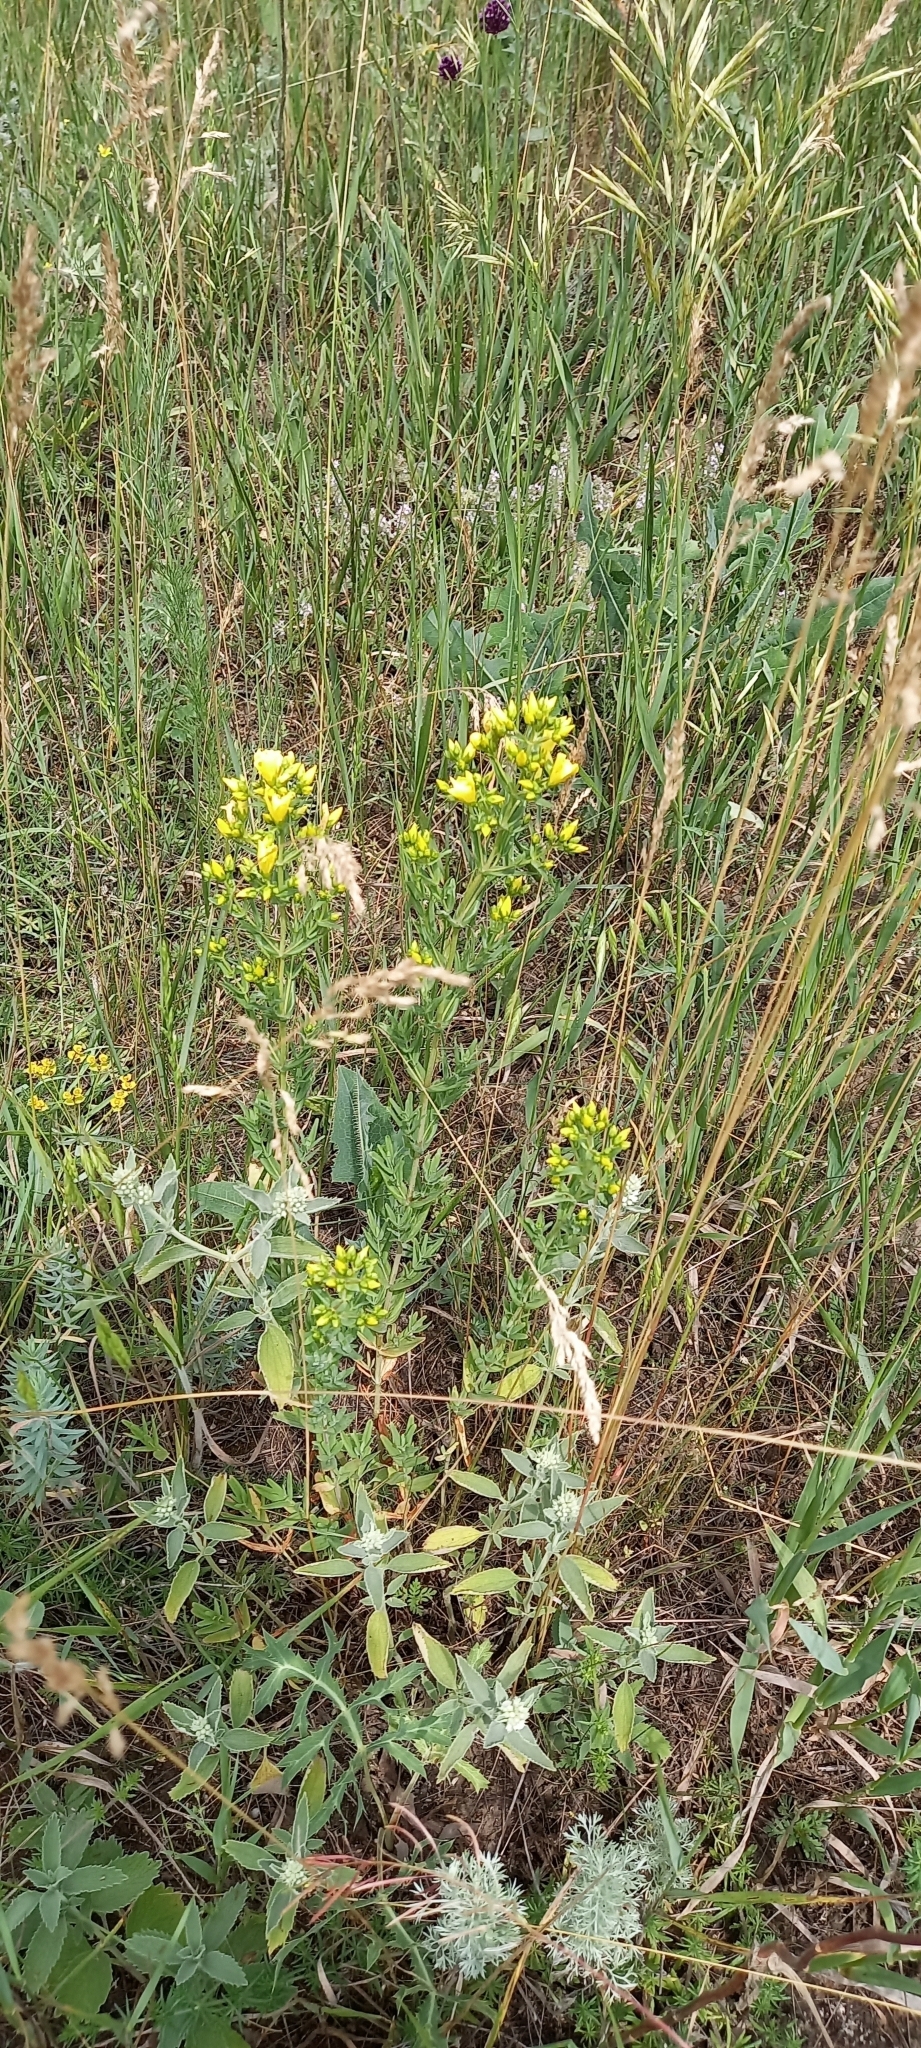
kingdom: Plantae
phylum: Tracheophyta
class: Magnoliopsida
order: Malpighiales
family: Hypericaceae
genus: Hypericum
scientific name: Hypericum elegans
